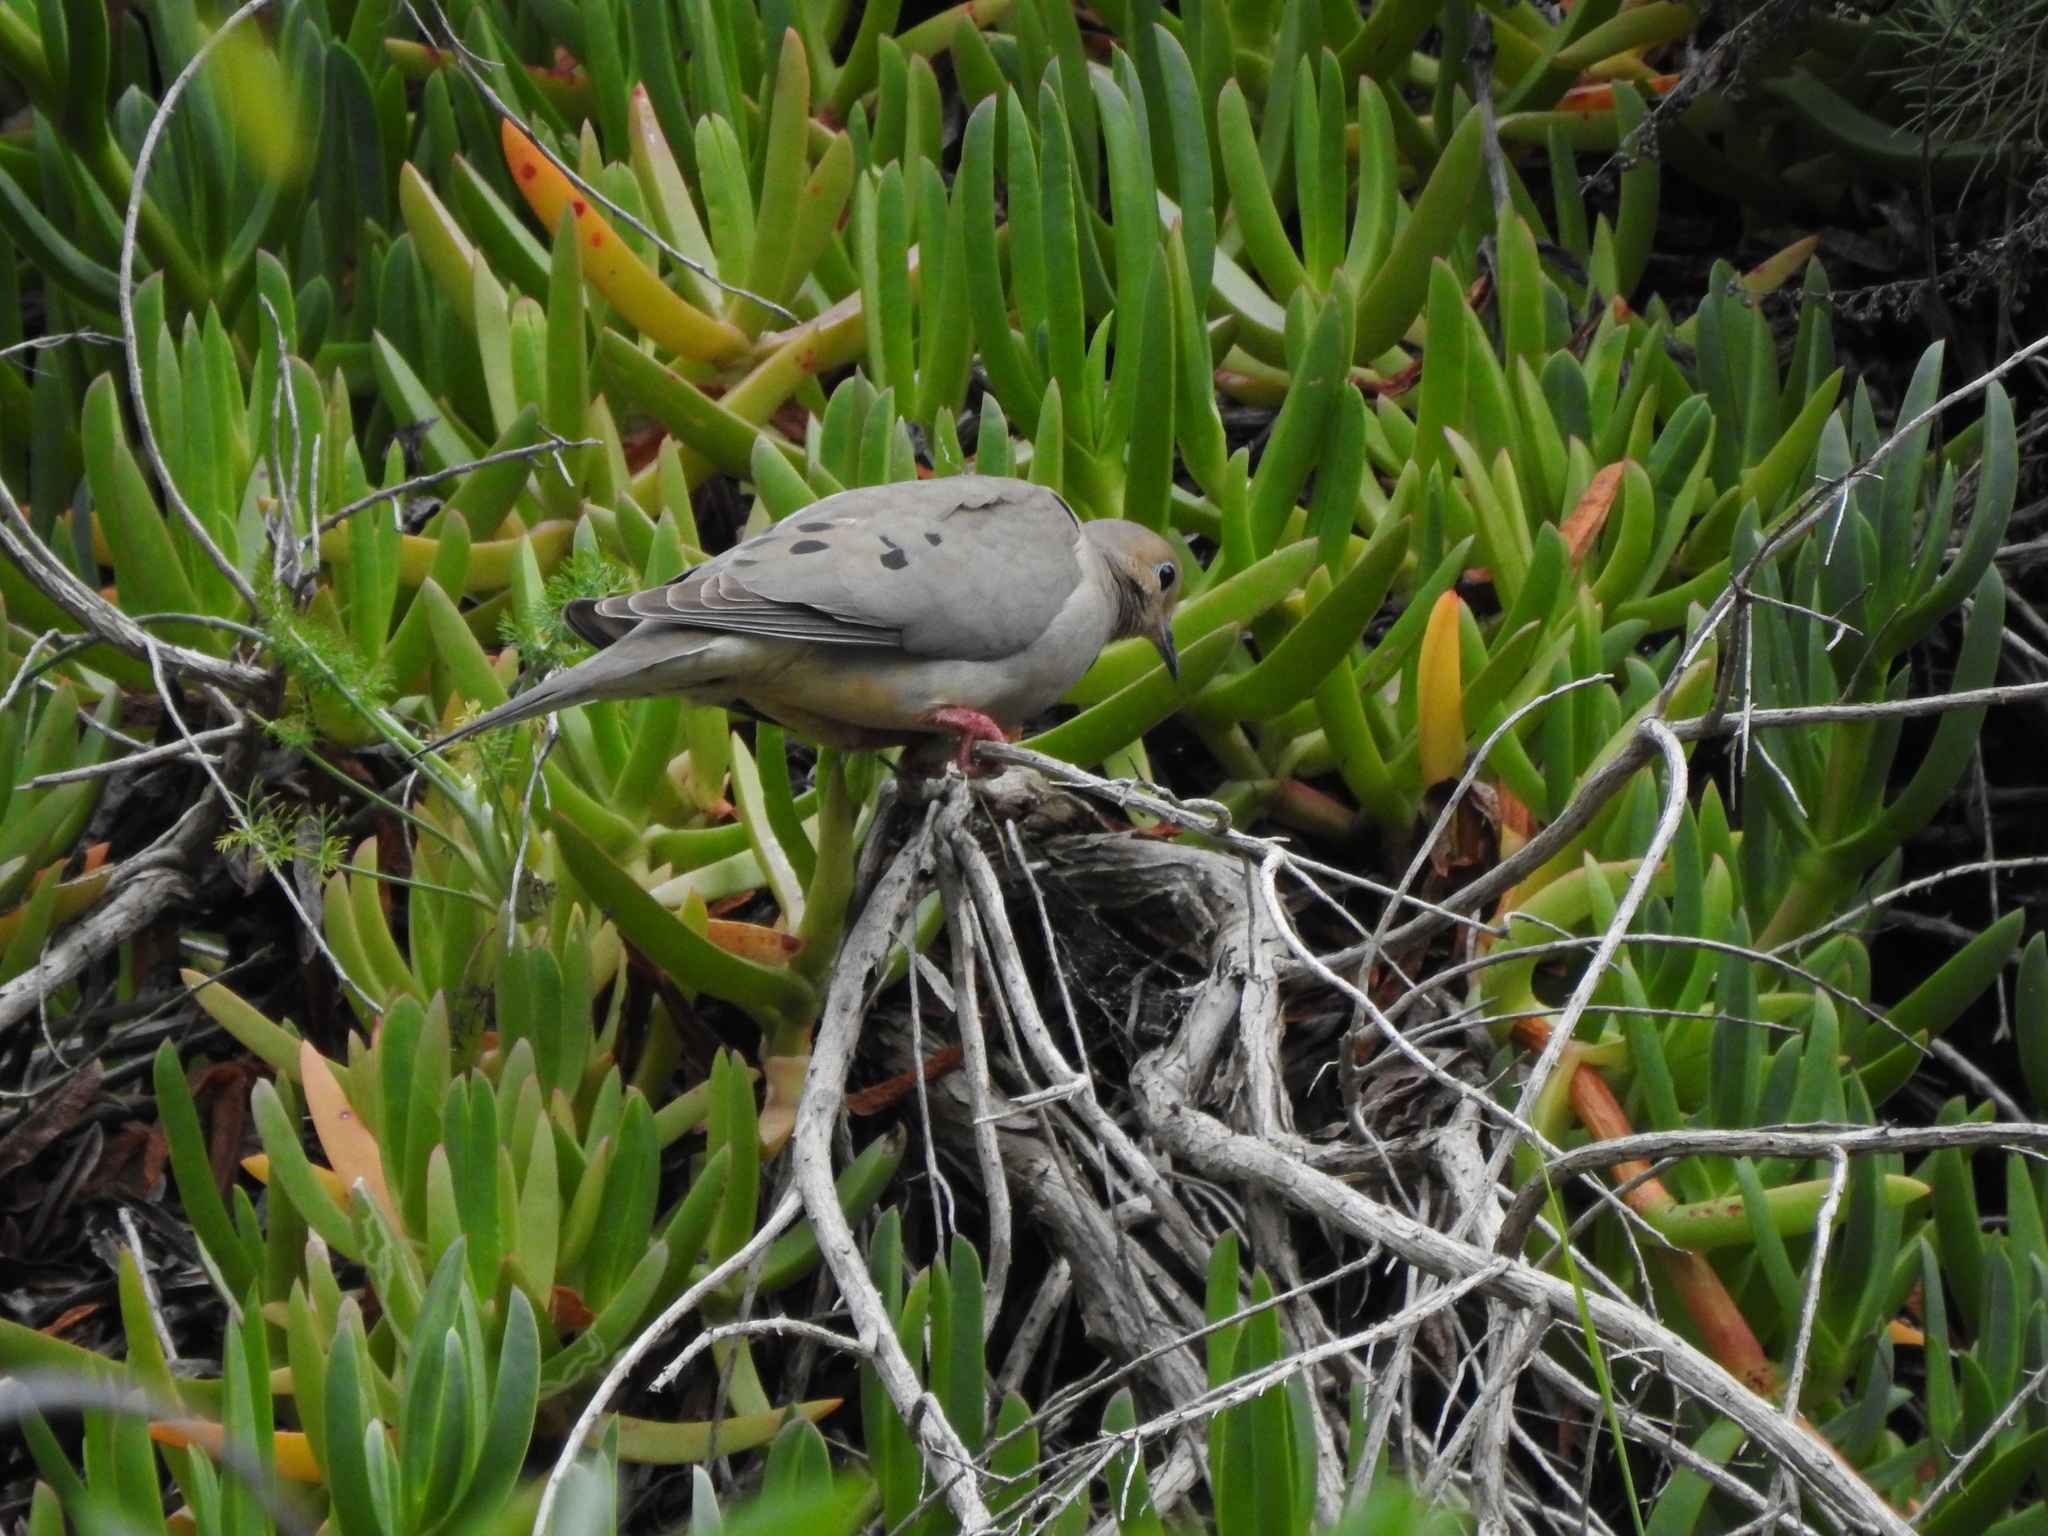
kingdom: Animalia
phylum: Chordata
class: Aves
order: Columbiformes
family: Columbidae
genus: Zenaida
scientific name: Zenaida macroura
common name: Mourning dove
